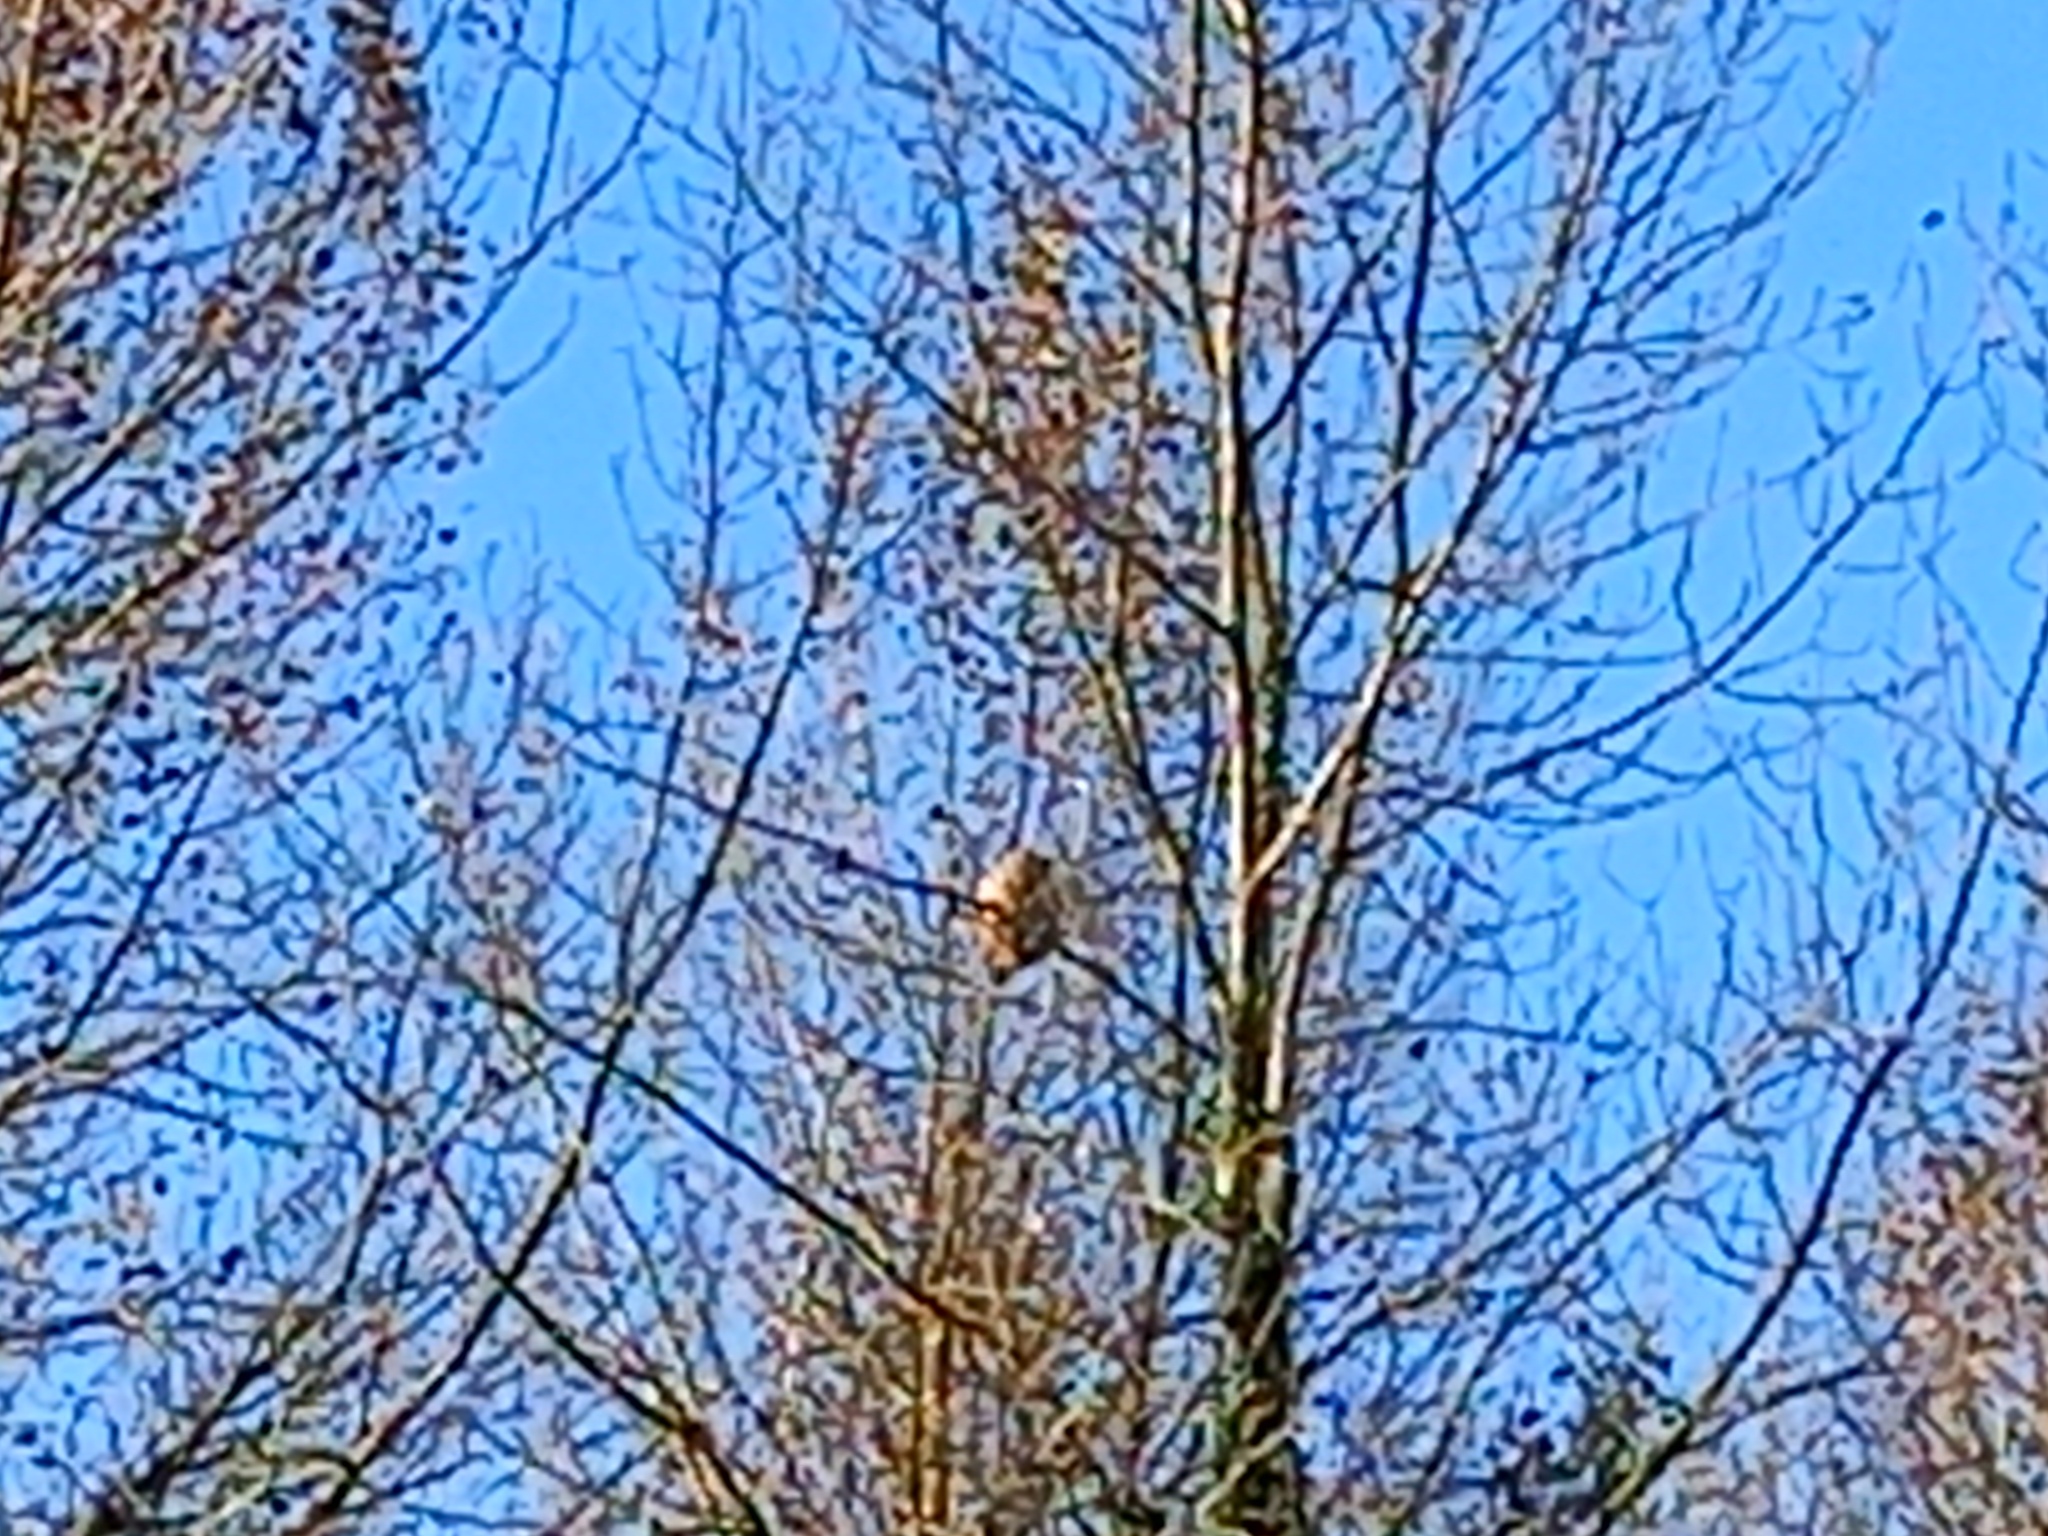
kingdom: Animalia
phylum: Arthropoda
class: Insecta
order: Hymenoptera
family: Vespidae
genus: Vespa
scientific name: Vespa velutina
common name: Asian hornet
